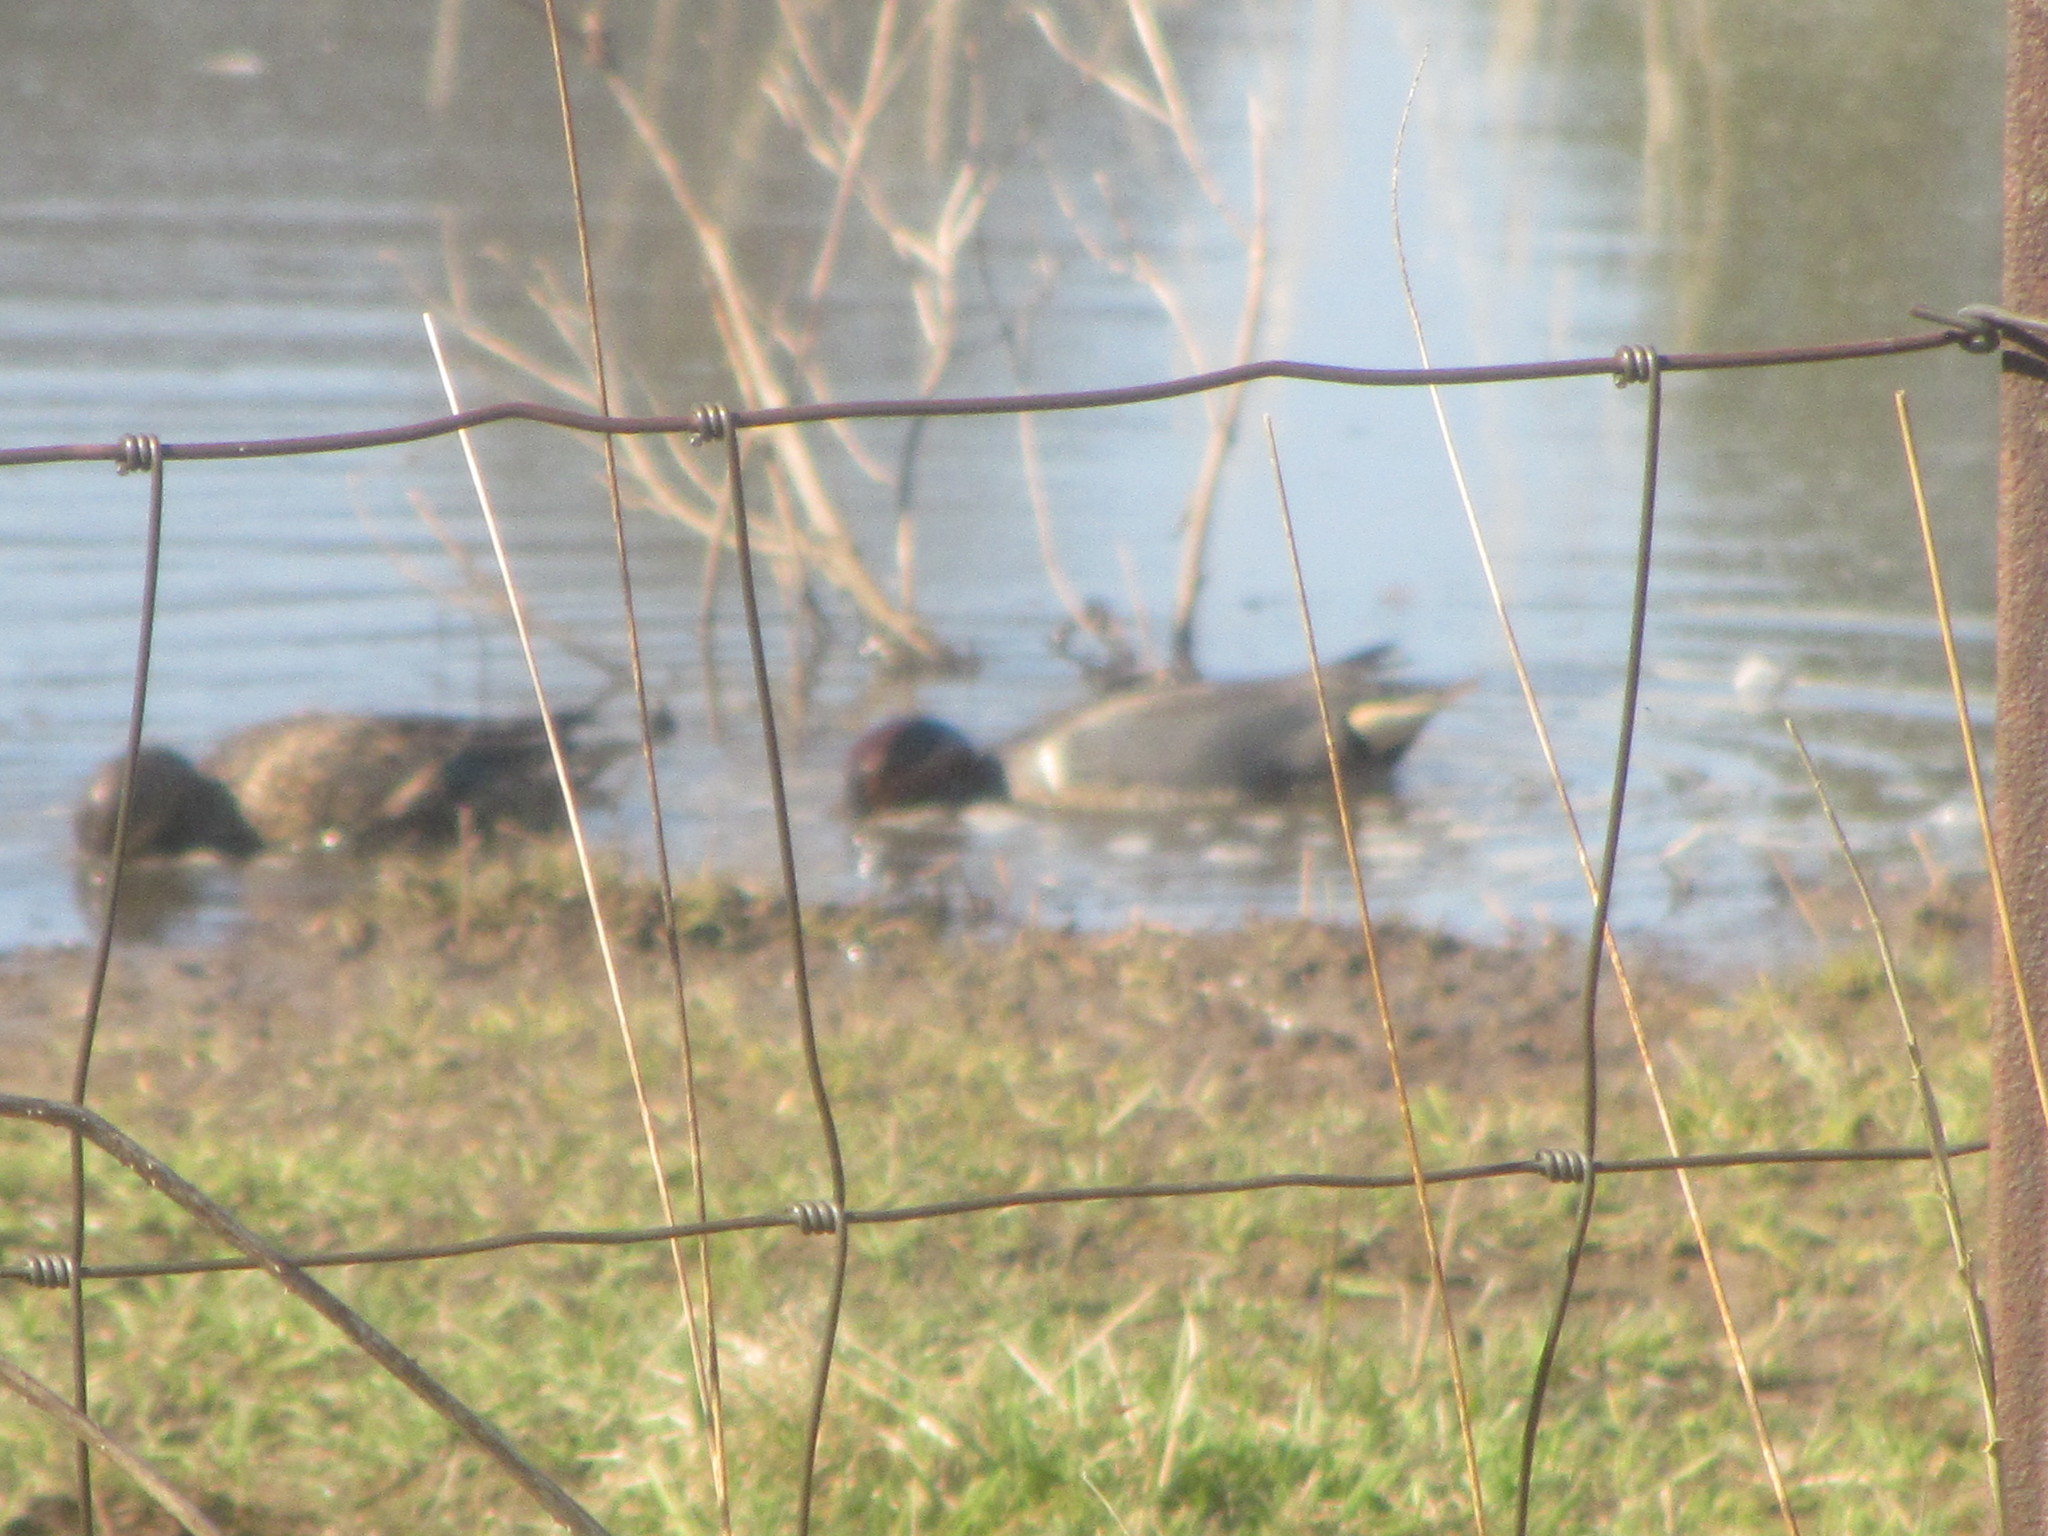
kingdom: Animalia
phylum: Chordata
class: Aves
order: Anseriformes
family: Anatidae
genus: Anas
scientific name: Anas crecca
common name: Eurasian teal
